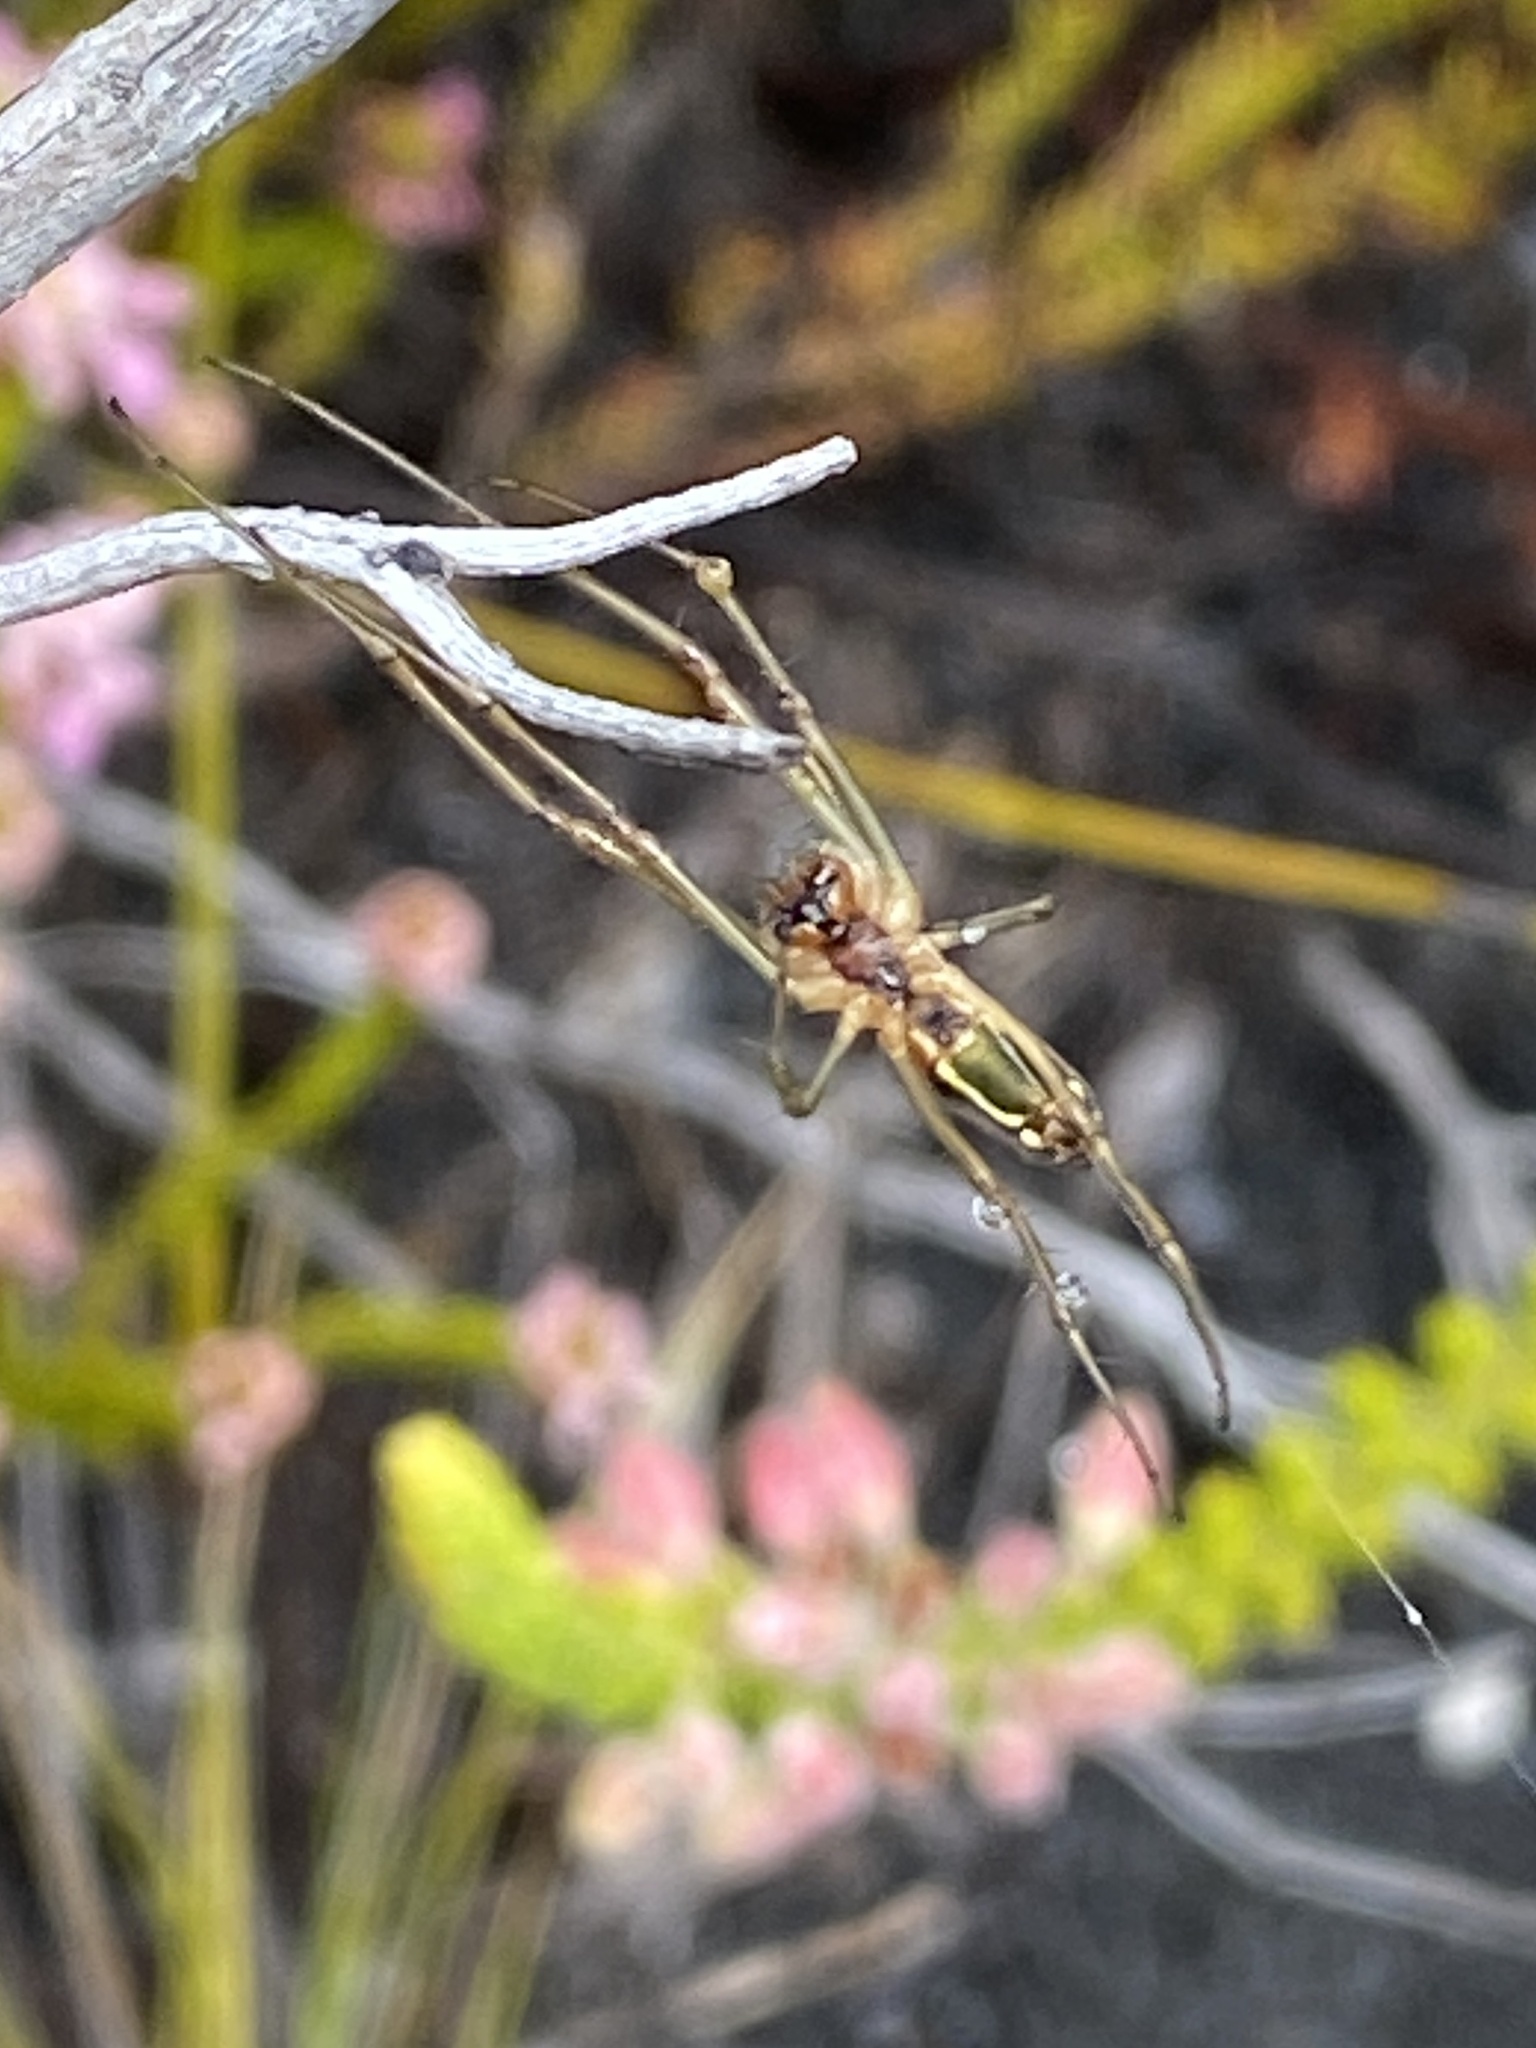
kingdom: Animalia
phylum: Arthropoda
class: Arachnida
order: Araneae
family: Tetragnathidae
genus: Leucauge
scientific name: Leucauge festiva
